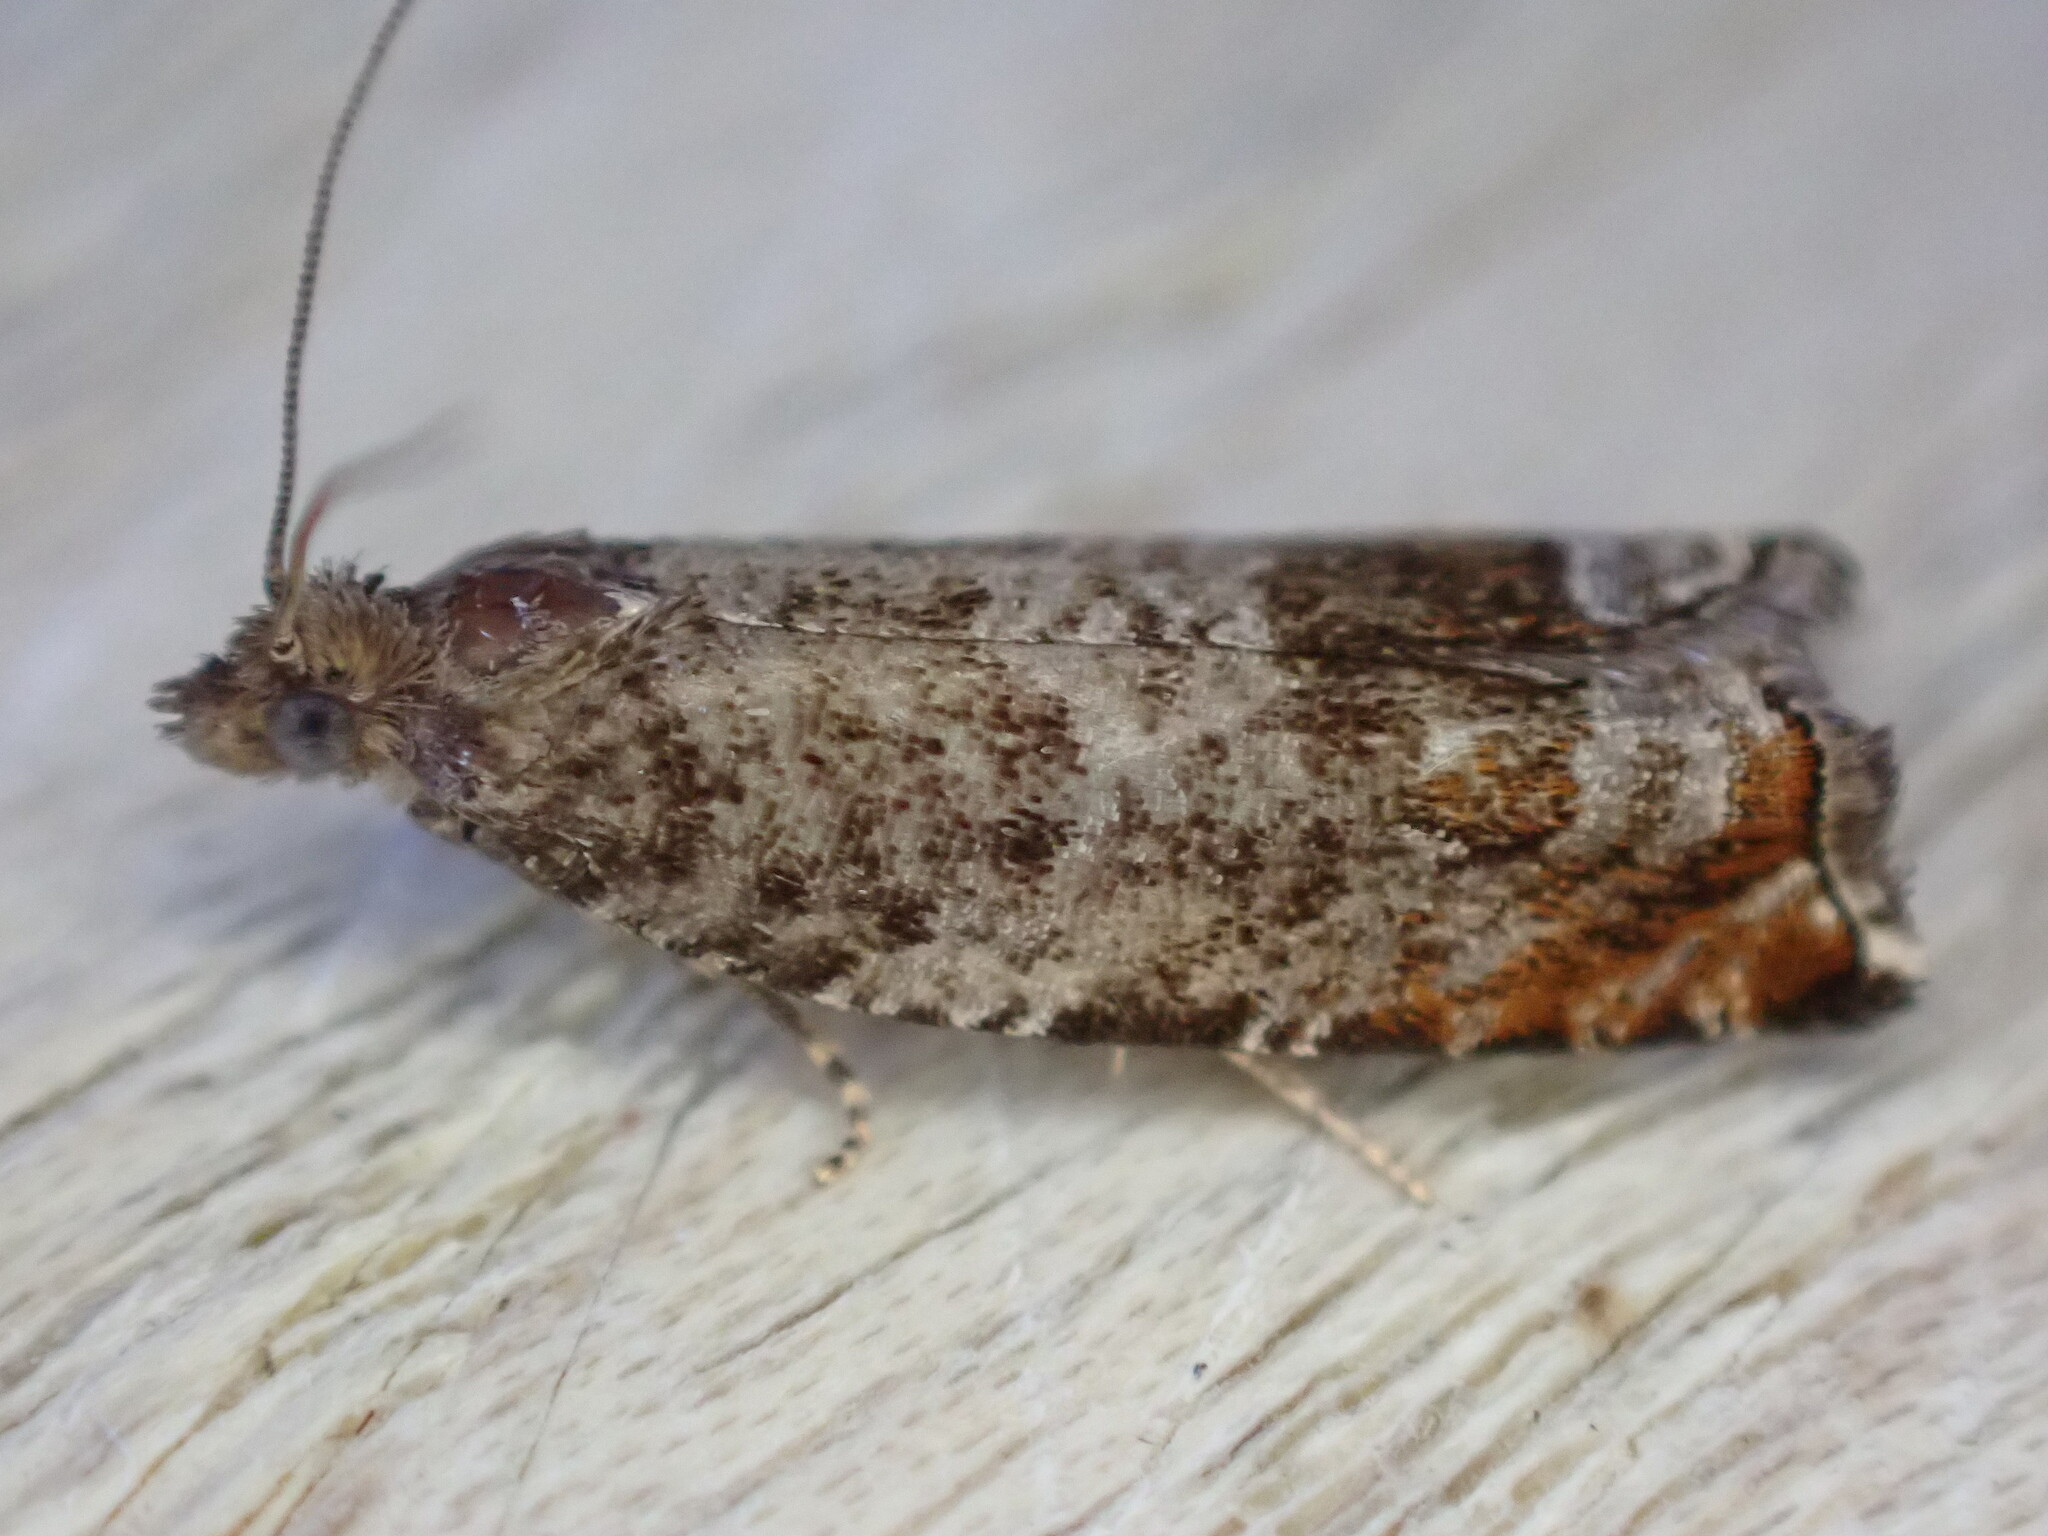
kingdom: Animalia
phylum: Arthropoda
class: Insecta
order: Lepidoptera
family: Tortricidae
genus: Ancylis
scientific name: Ancylis achatana
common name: Triangle-marked roller
